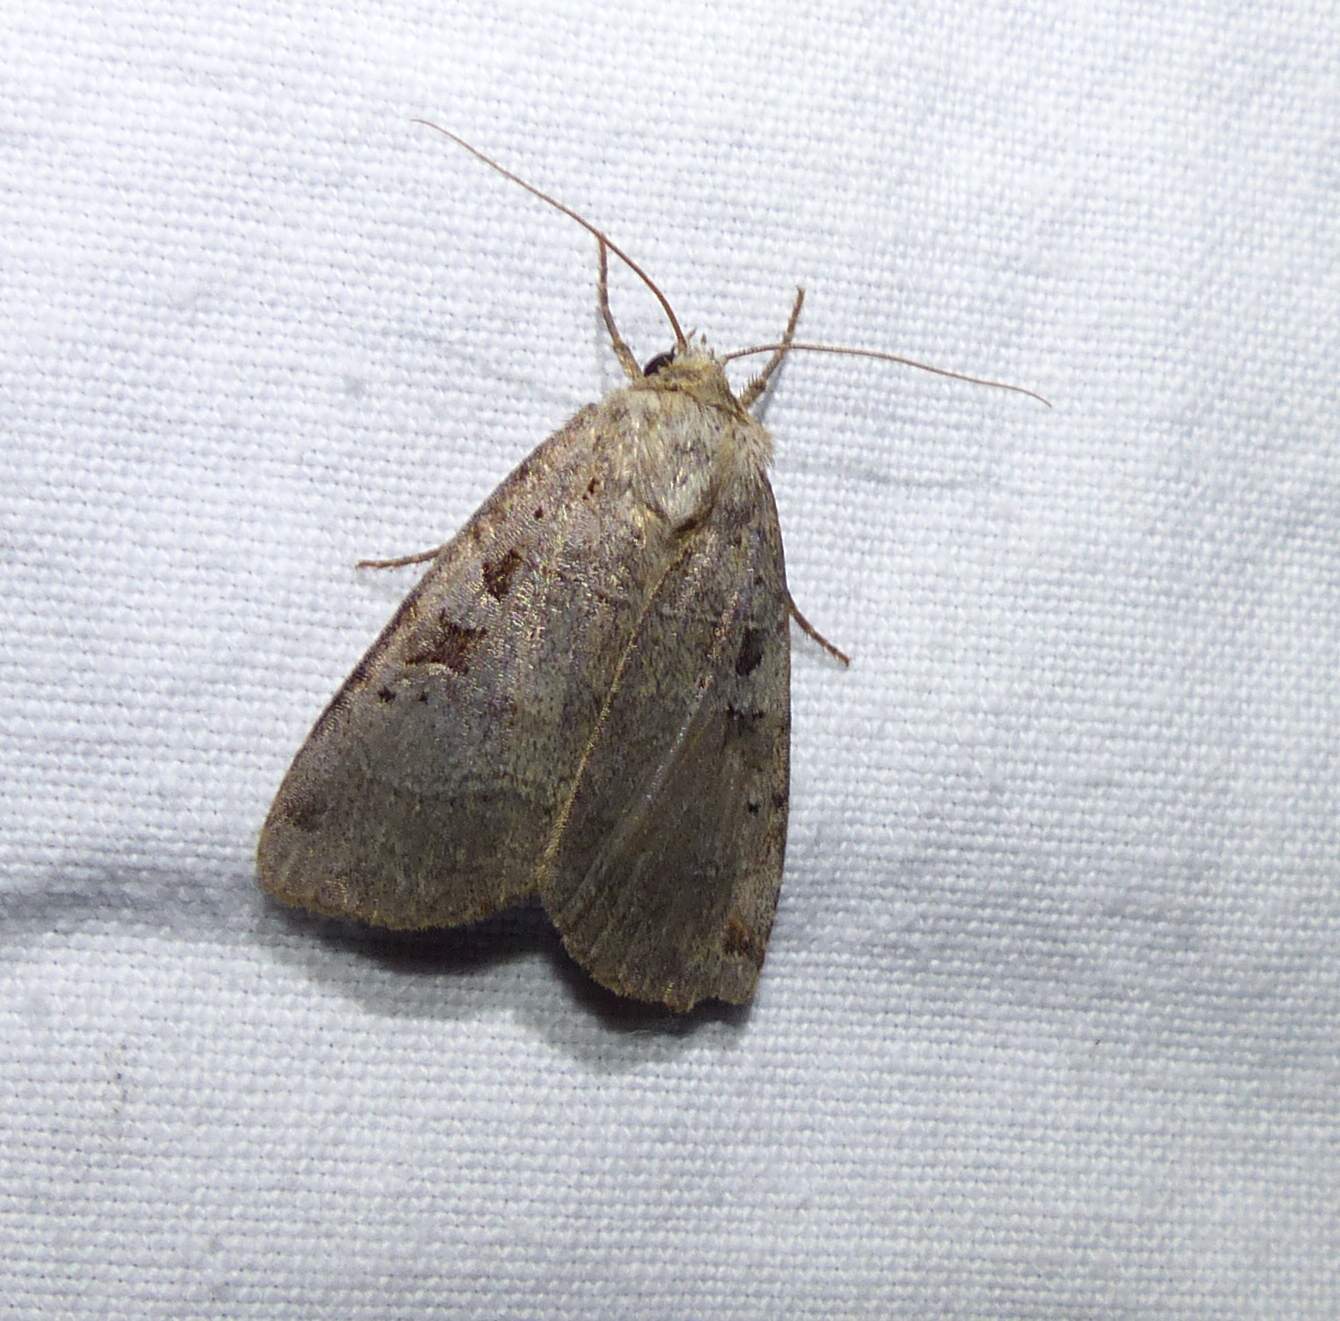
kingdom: Animalia
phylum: Arthropoda
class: Insecta
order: Lepidoptera
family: Noctuidae
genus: Xestia
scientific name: Xestia normaniana
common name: Norman's dart moth
